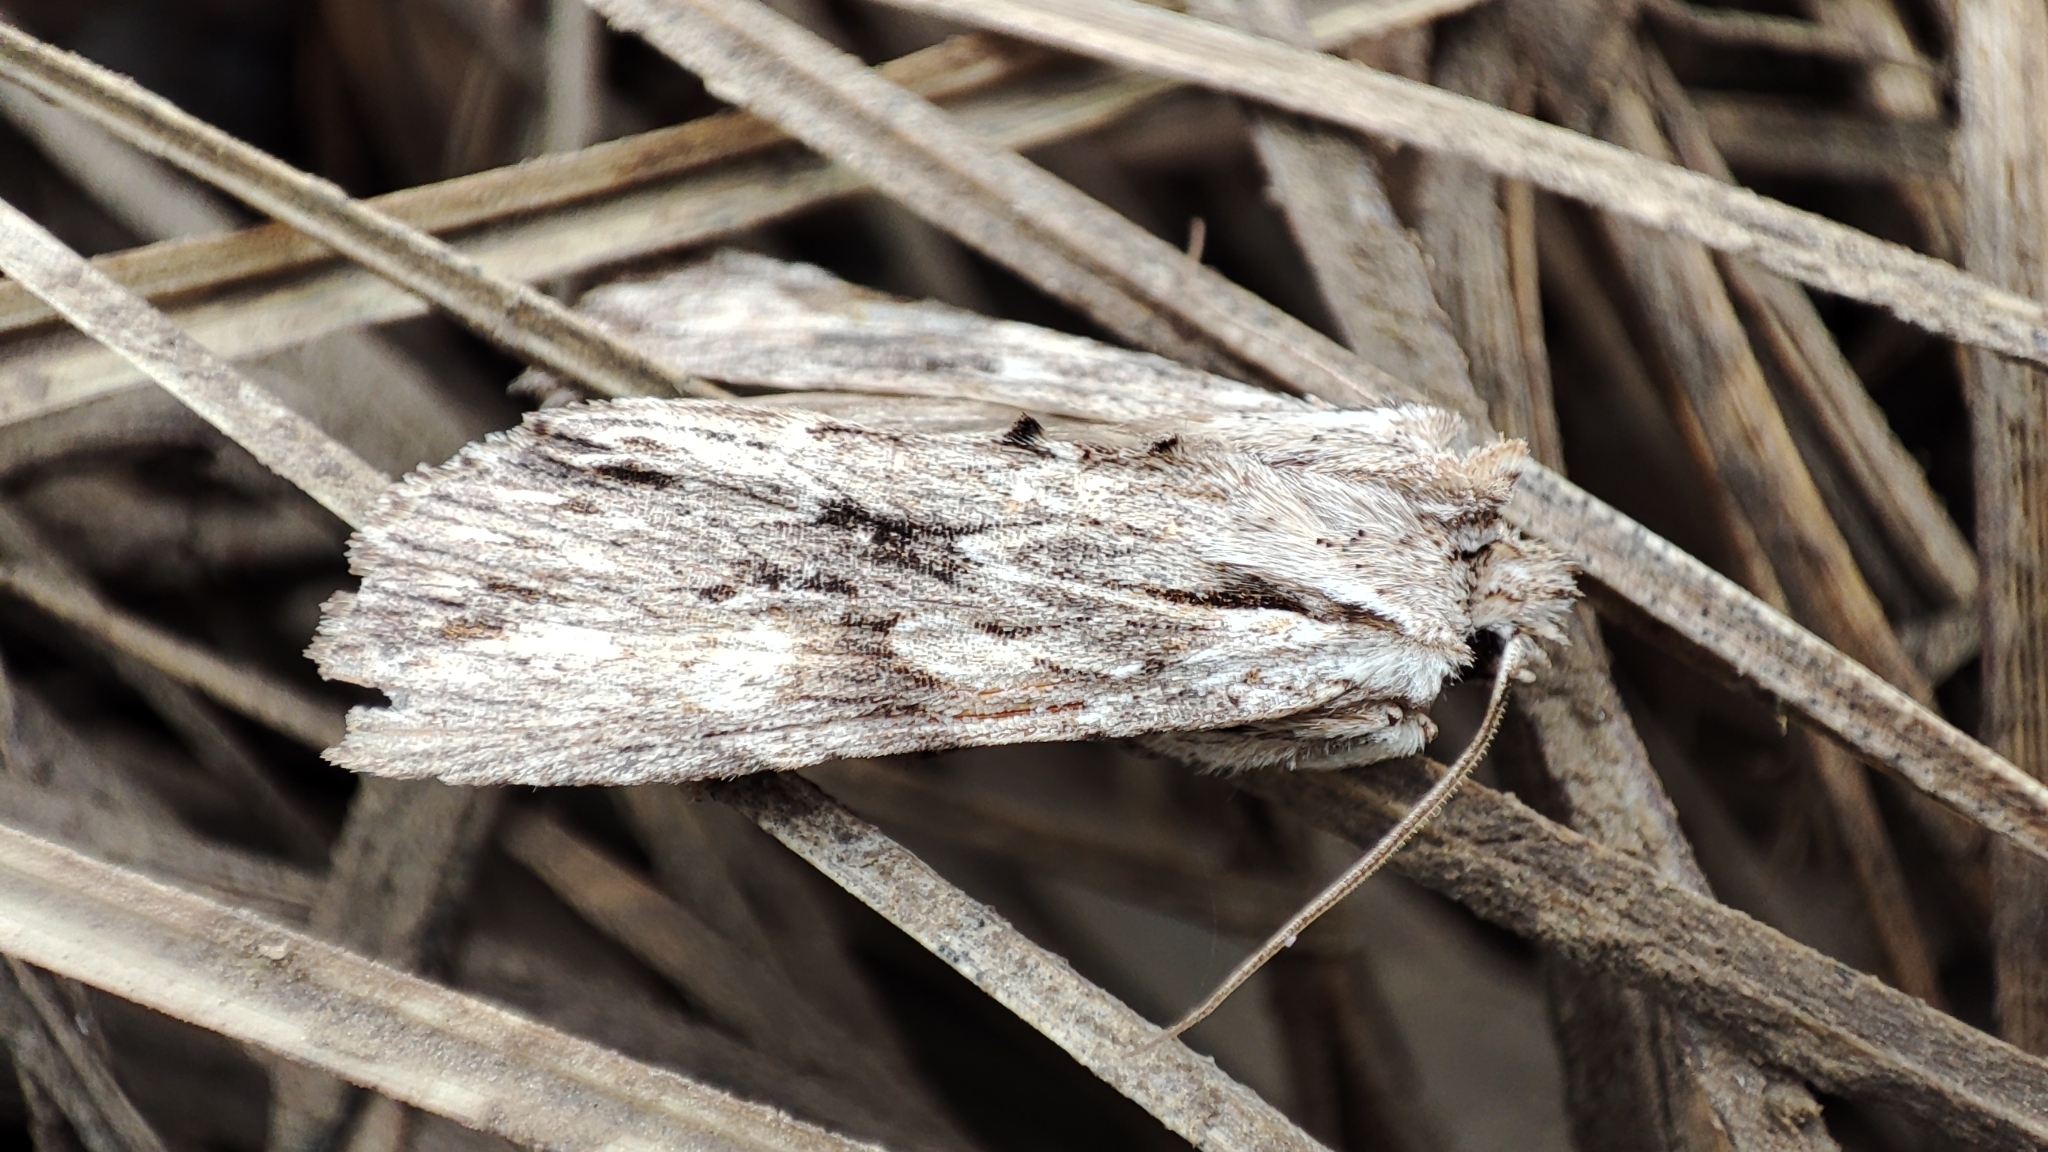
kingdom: Animalia
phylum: Arthropoda
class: Insecta
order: Lepidoptera
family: Noctuidae
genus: Lithophane
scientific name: Lithophane socia
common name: Pale pinion
